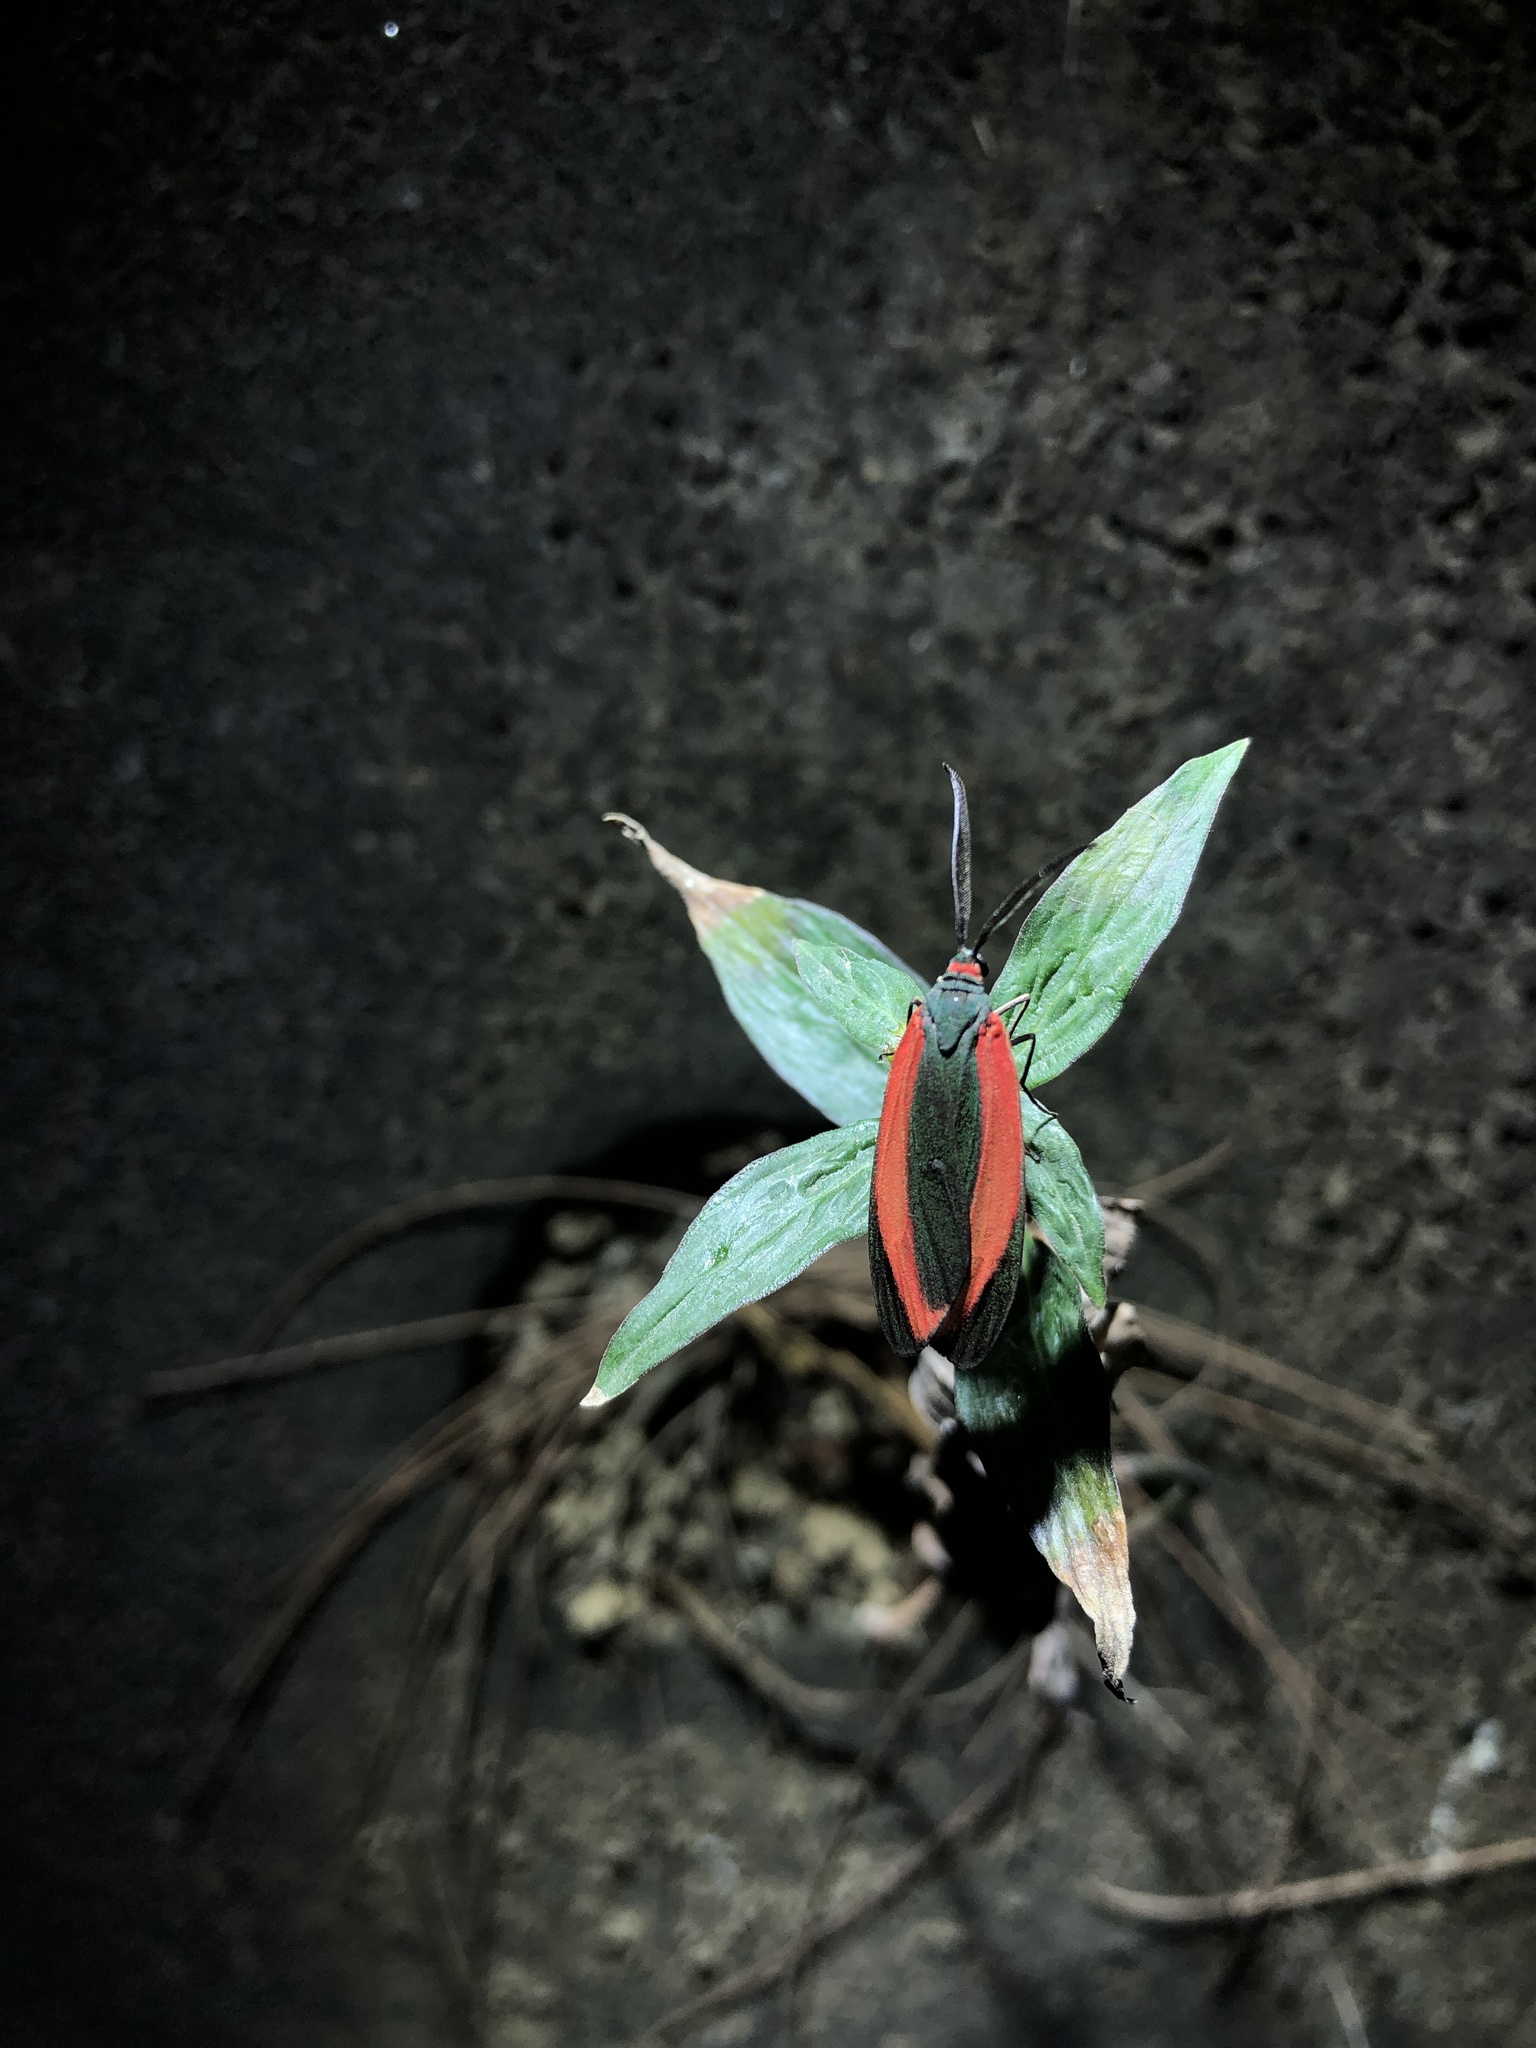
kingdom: Animalia
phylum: Arthropoda
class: Insecta
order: Lepidoptera
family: Zygaenidae
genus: Retina
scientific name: Retina rubrivitta
